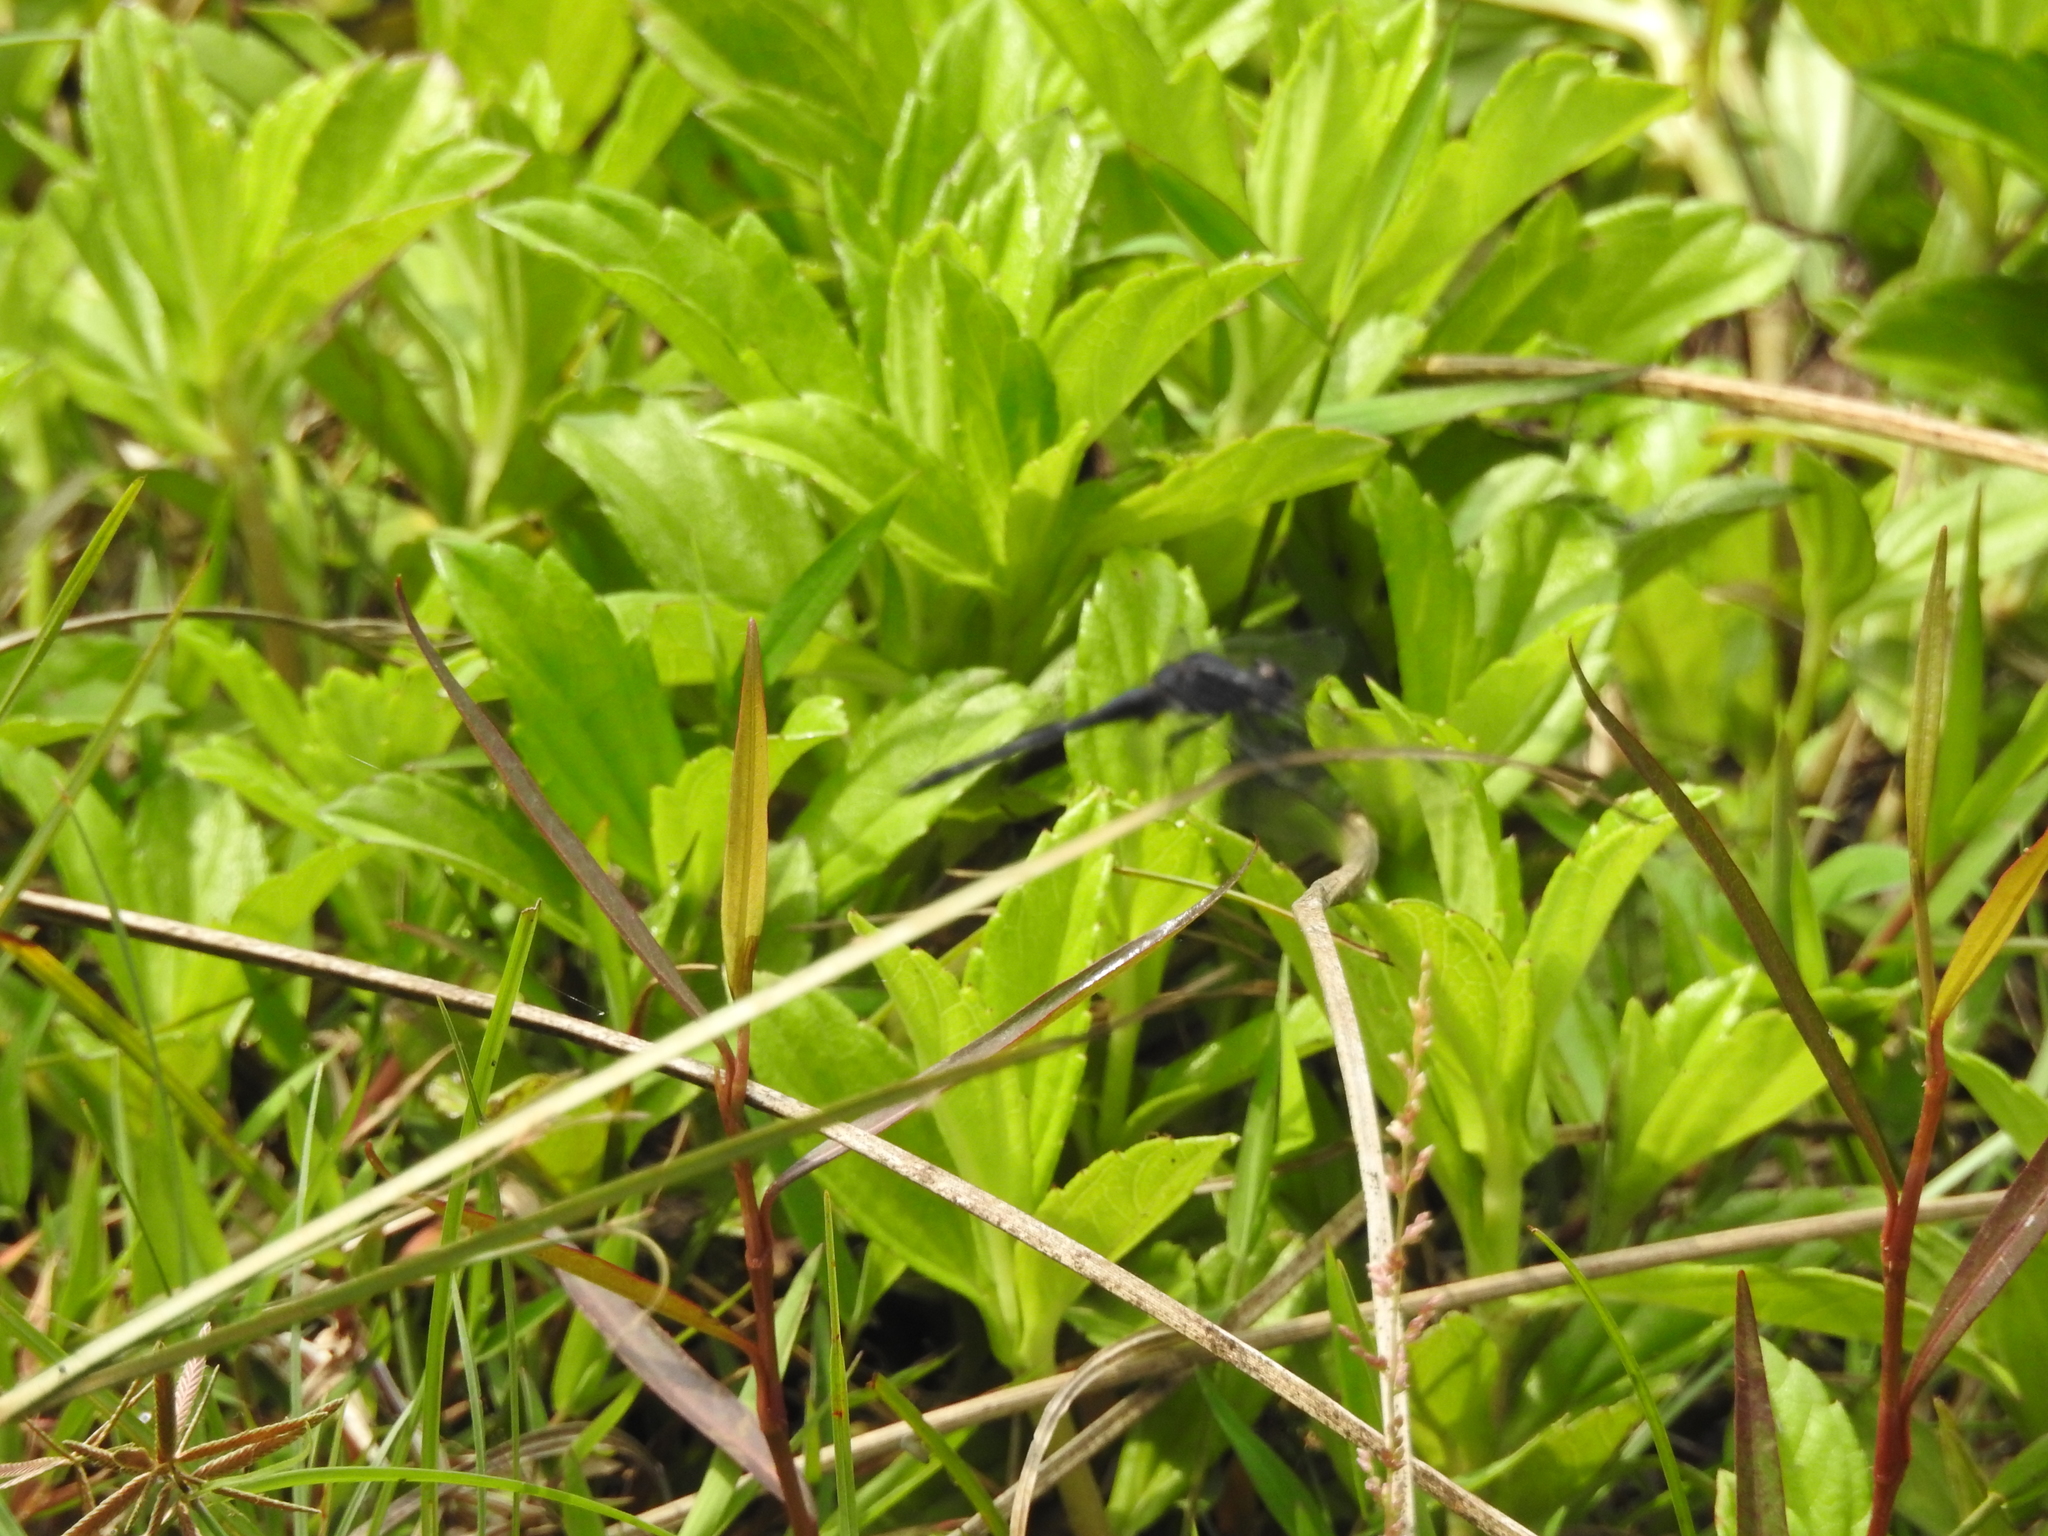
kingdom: Animalia
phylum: Arthropoda
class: Insecta
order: Odonata
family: Libellulidae
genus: Trithemis
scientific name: Trithemis festiva
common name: Indigo dropwing
